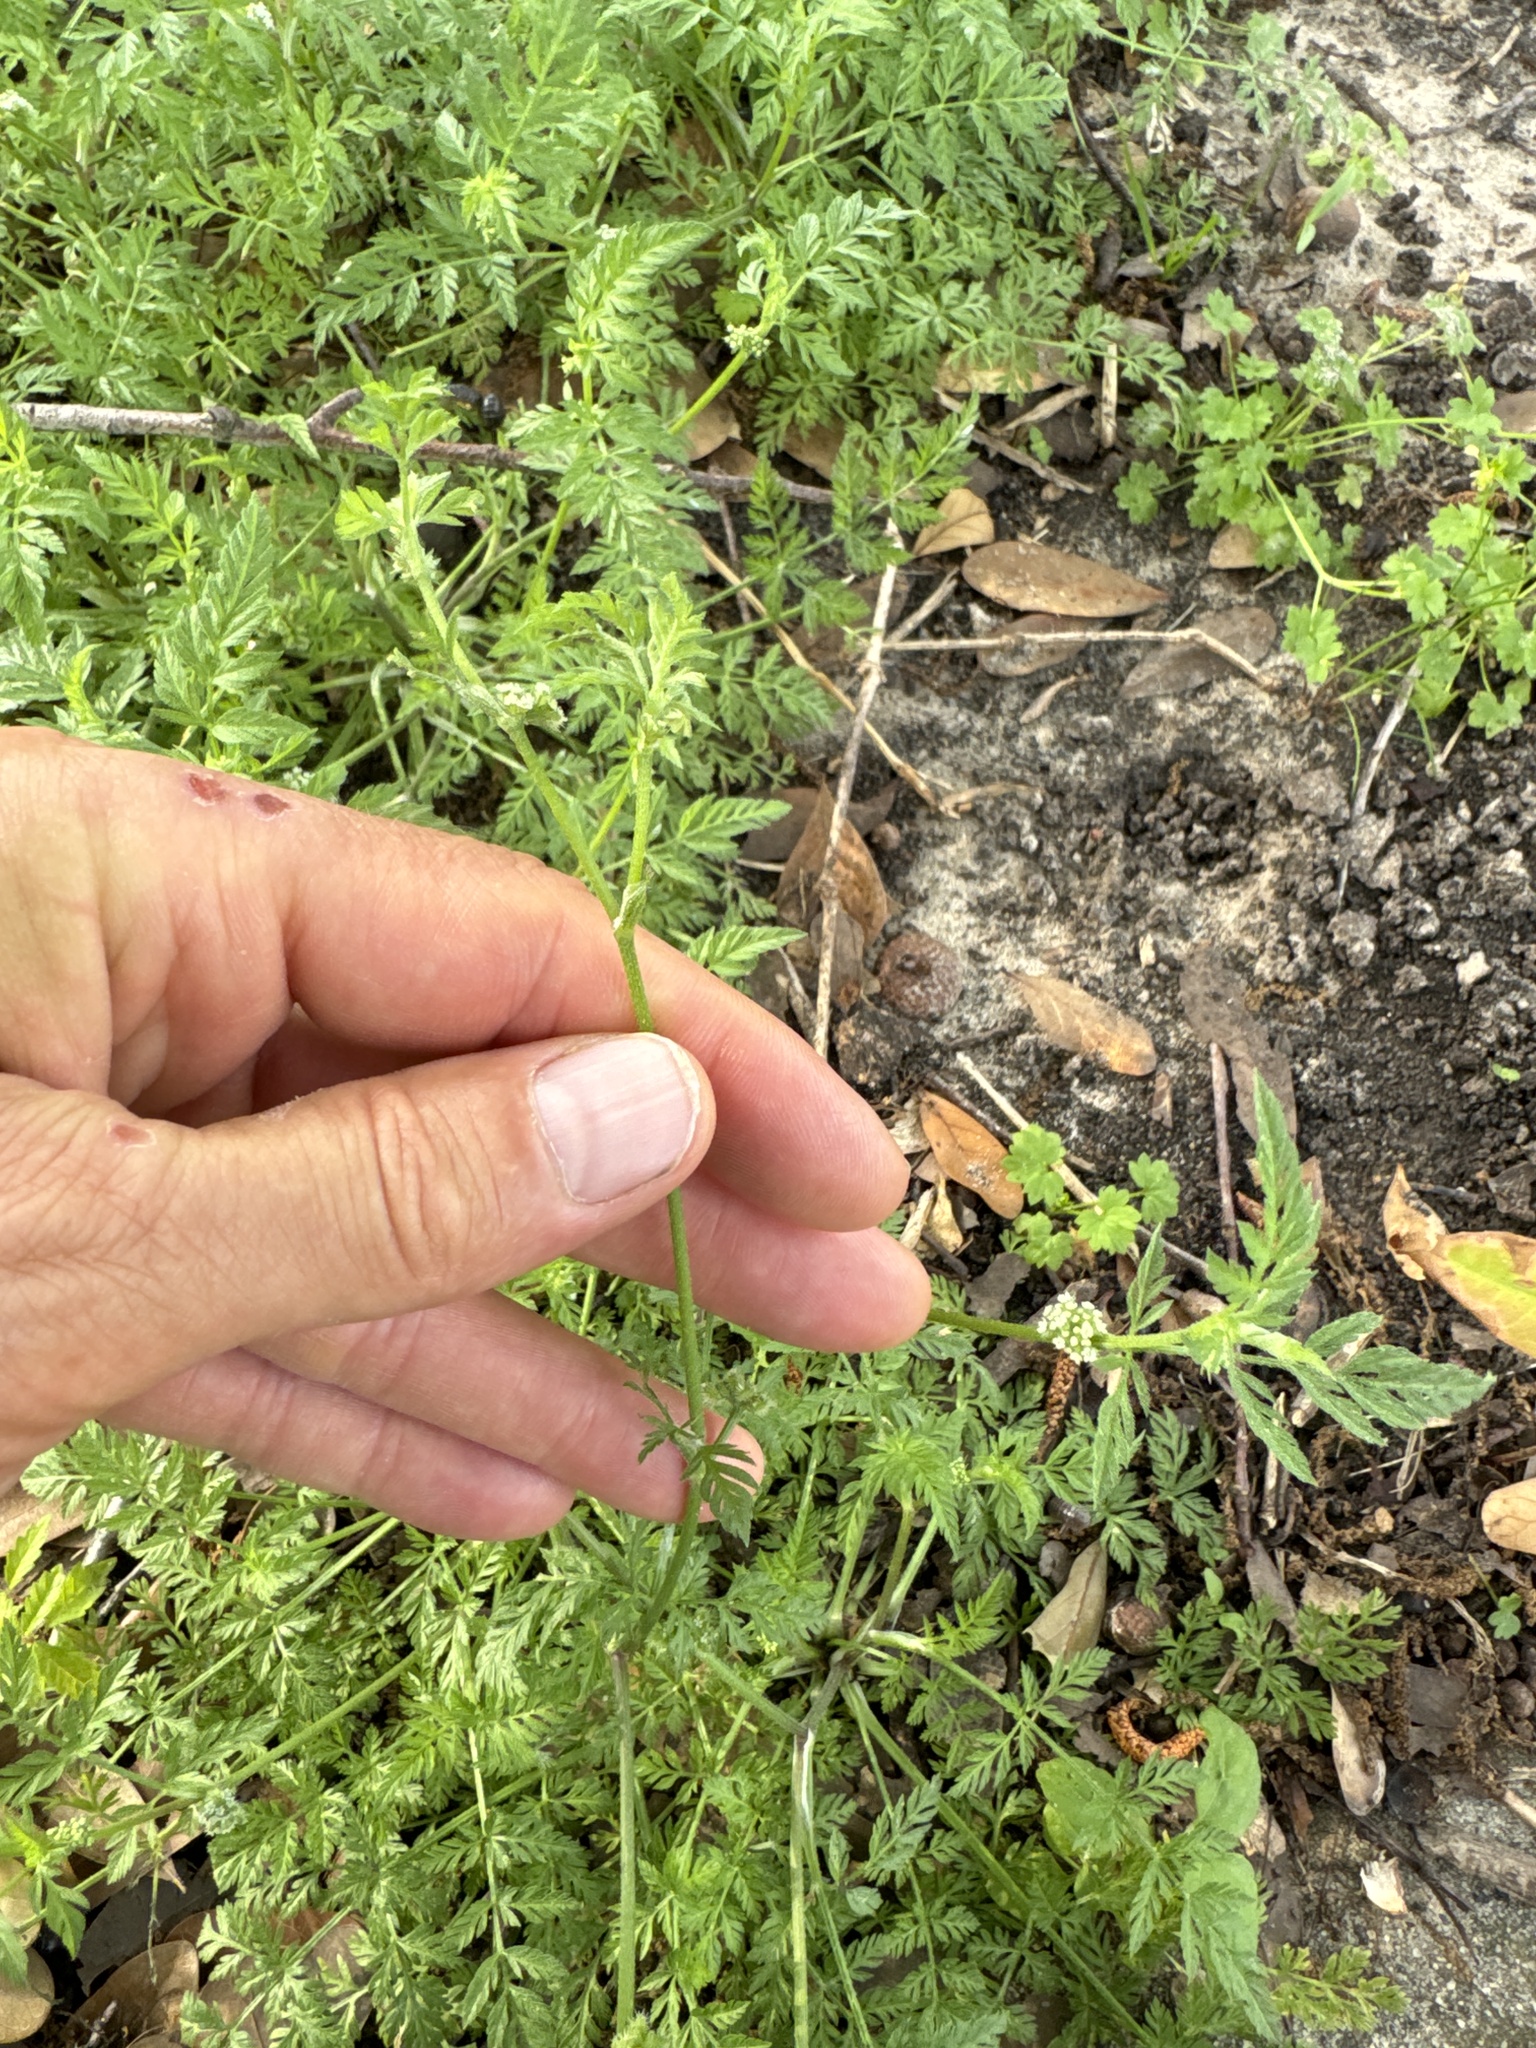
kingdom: Plantae
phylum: Tracheophyta
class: Magnoliopsida
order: Apiales
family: Apiaceae
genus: Torilis
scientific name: Torilis nodosa
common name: Knotted hedge-parsley
